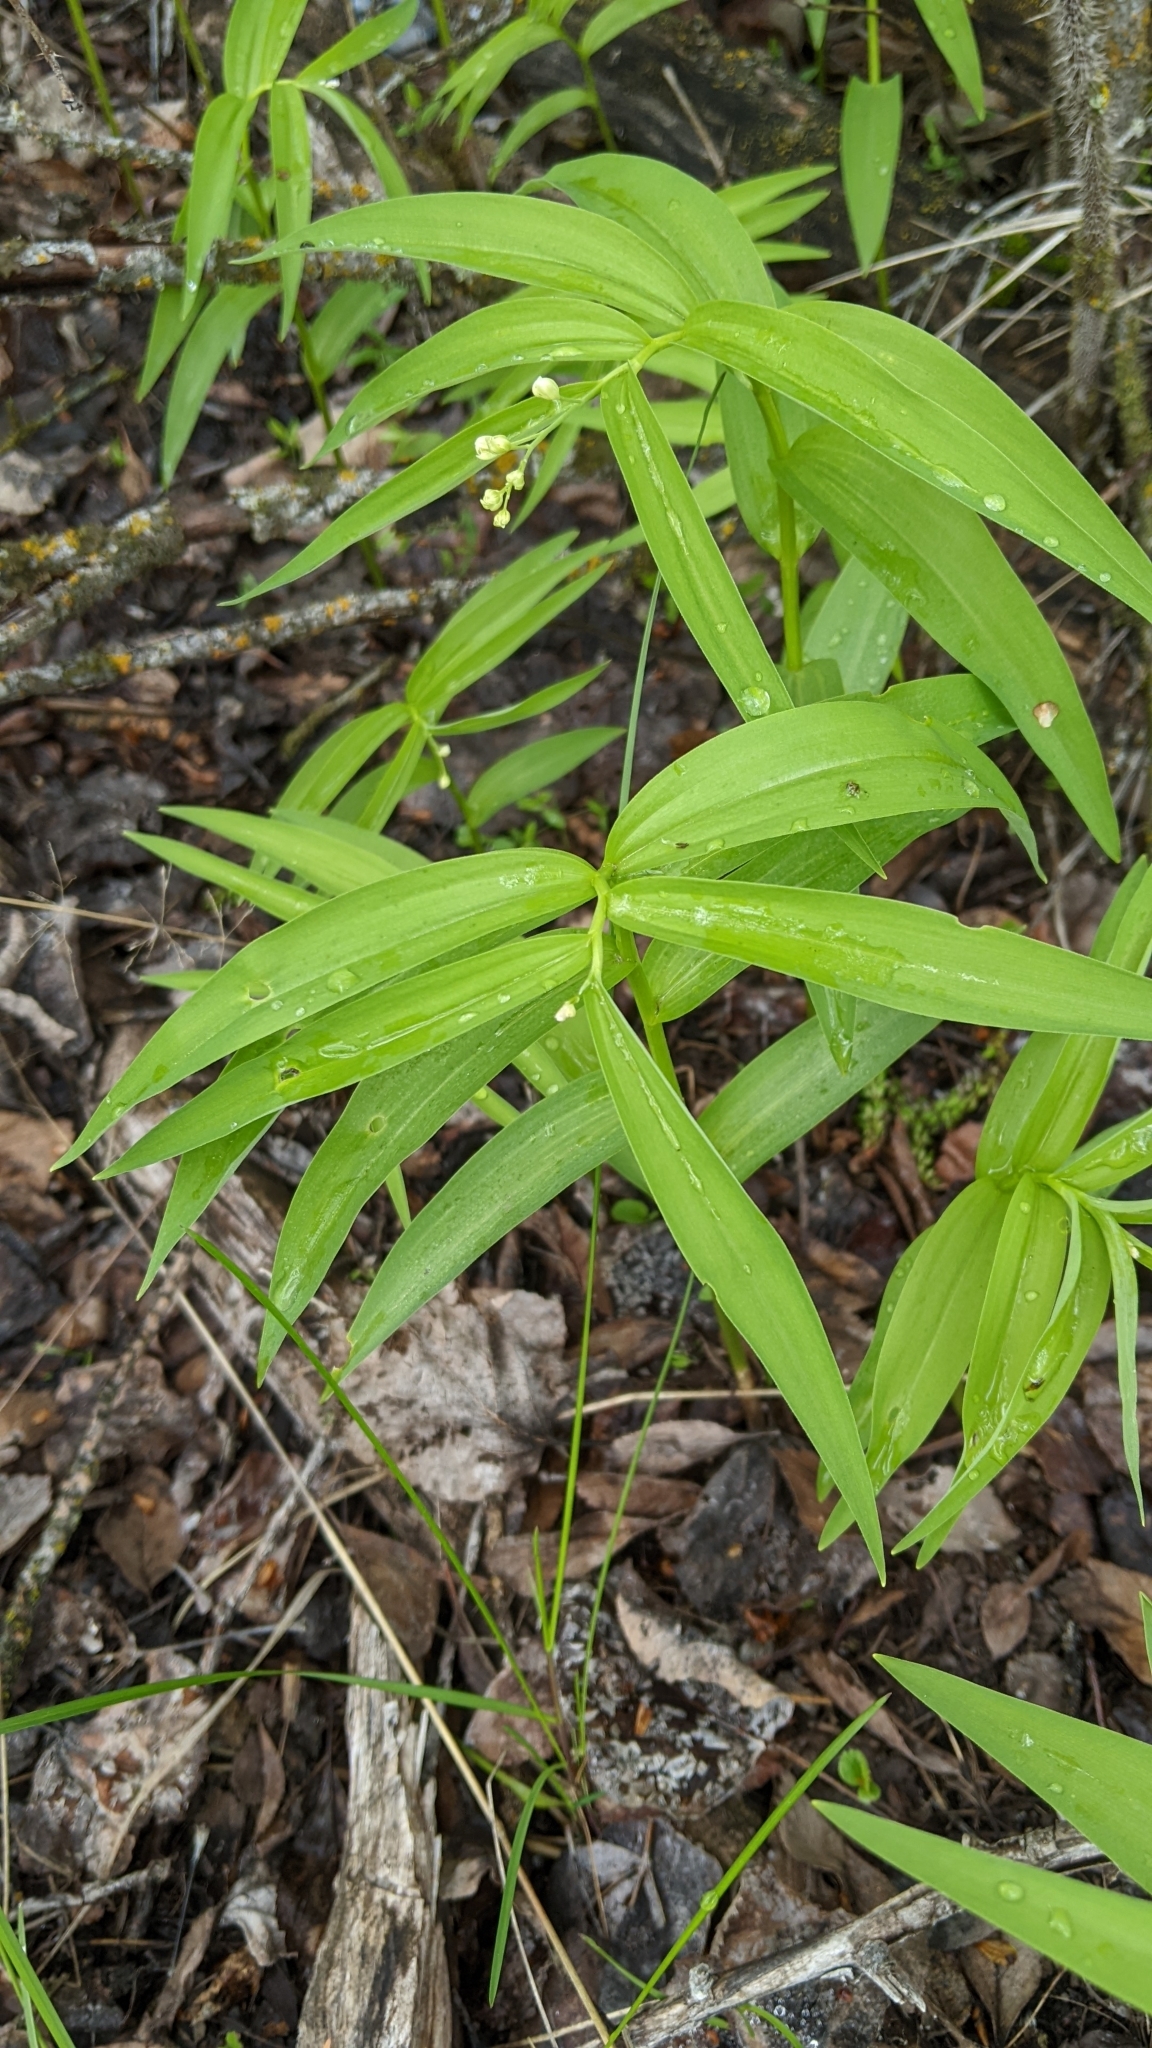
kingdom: Plantae
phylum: Tracheophyta
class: Liliopsida
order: Asparagales
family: Asparagaceae
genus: Maianthemum
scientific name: Maianthemum stellatum
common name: Little false solomon's seal
